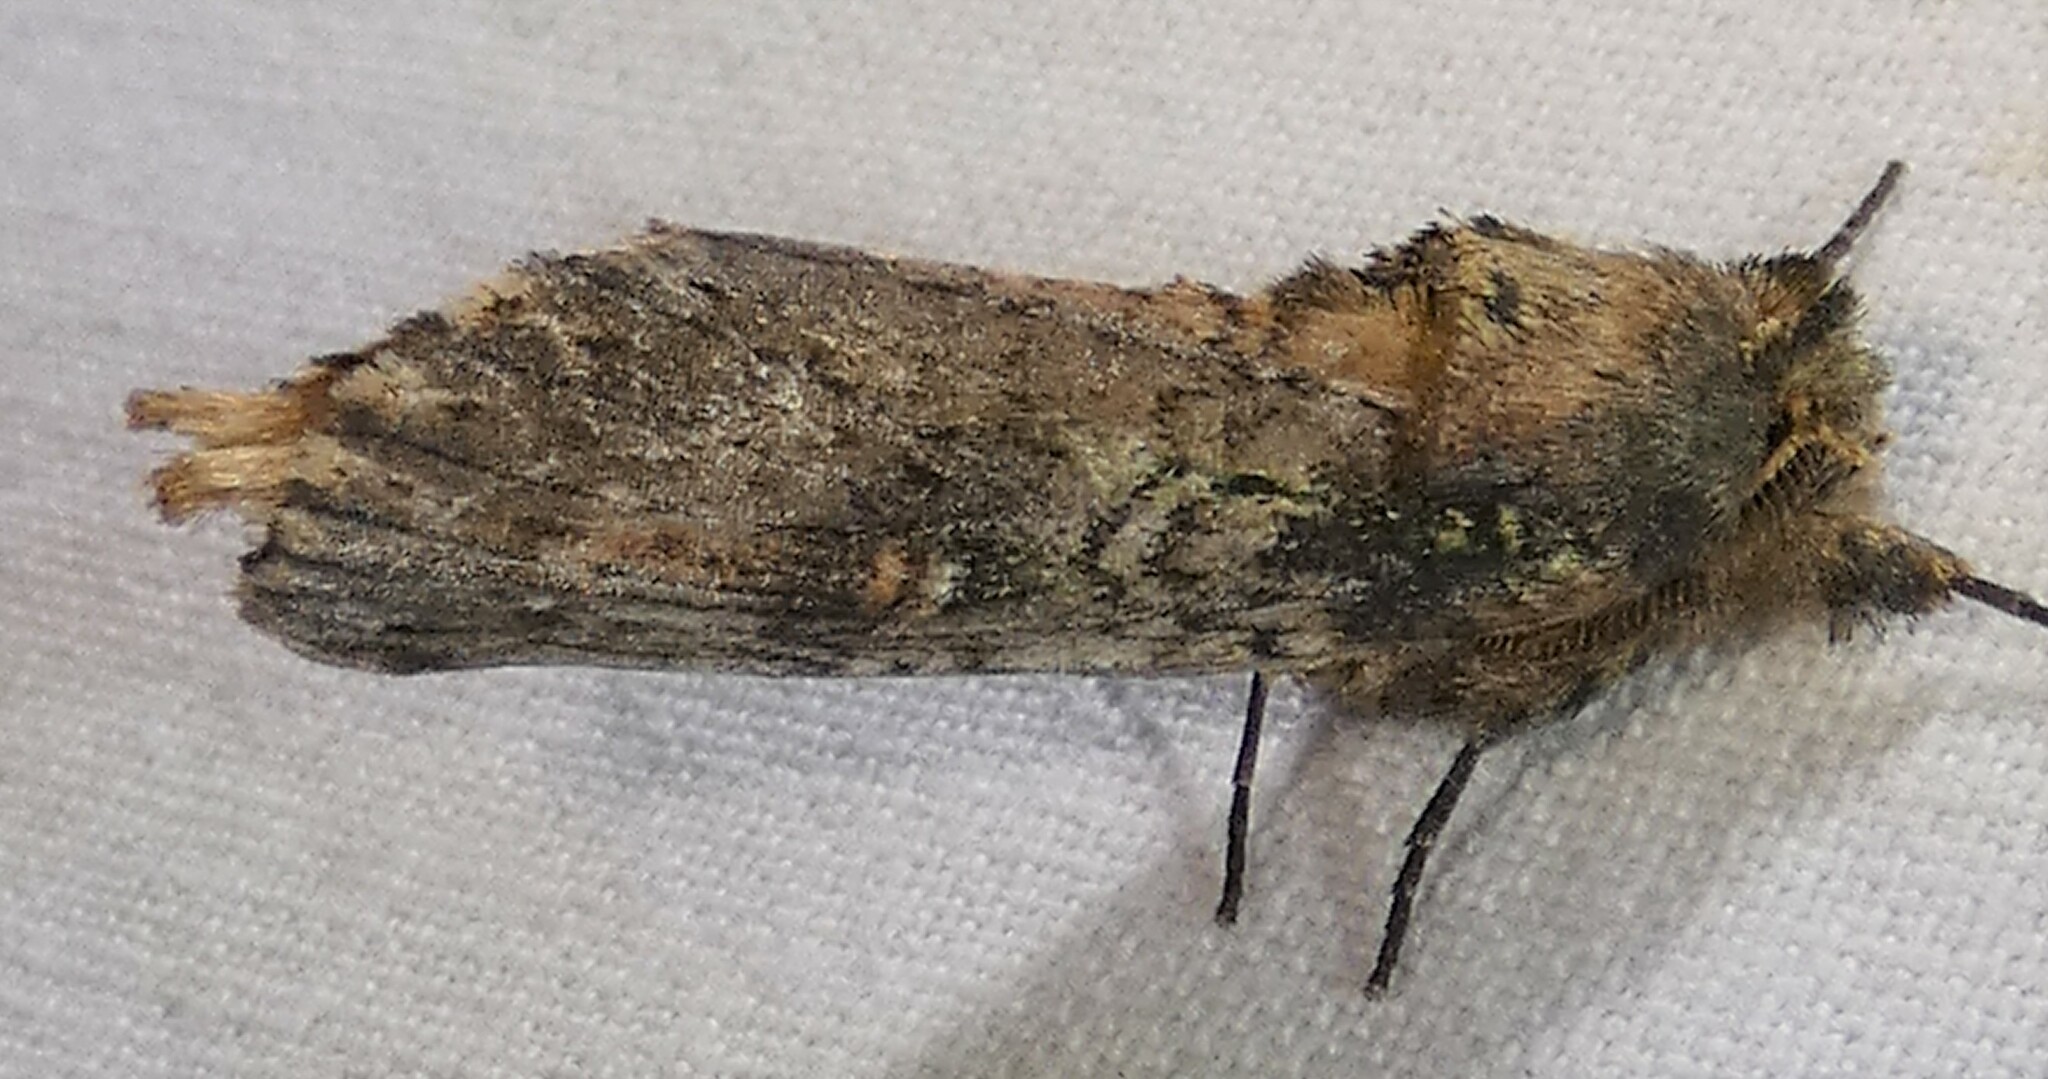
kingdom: Animalia
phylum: Arthropoda
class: Insecta
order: Lepidoptera
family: Notodontidae
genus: Schizura
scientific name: Schizura ipomaeae
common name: Morning-glory prominent
